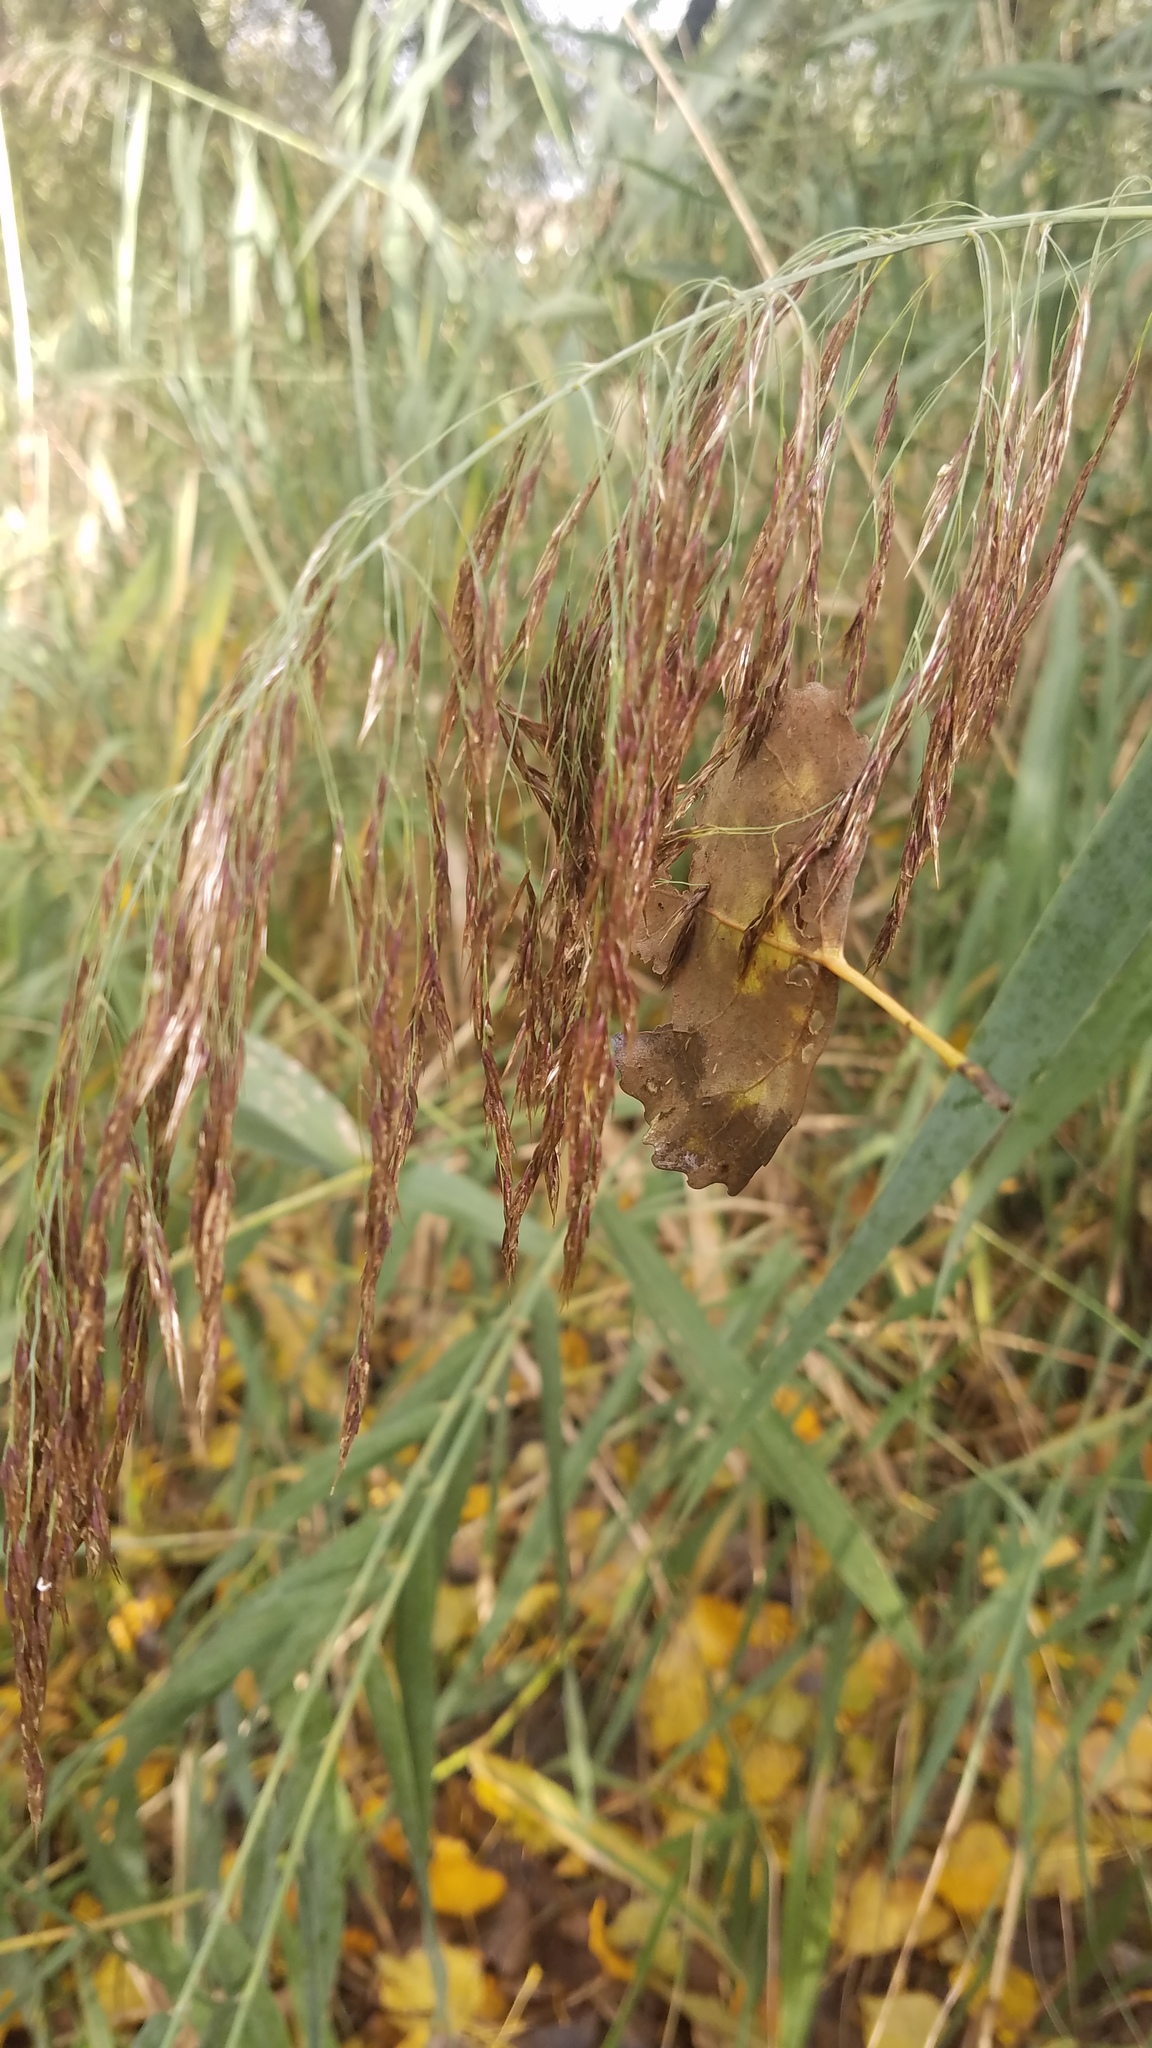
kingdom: Plantae
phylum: Tracheophyta
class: Liliopsida
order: Poales
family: Poaceae
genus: Phragmites
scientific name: Phragmites australis
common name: Common reed
